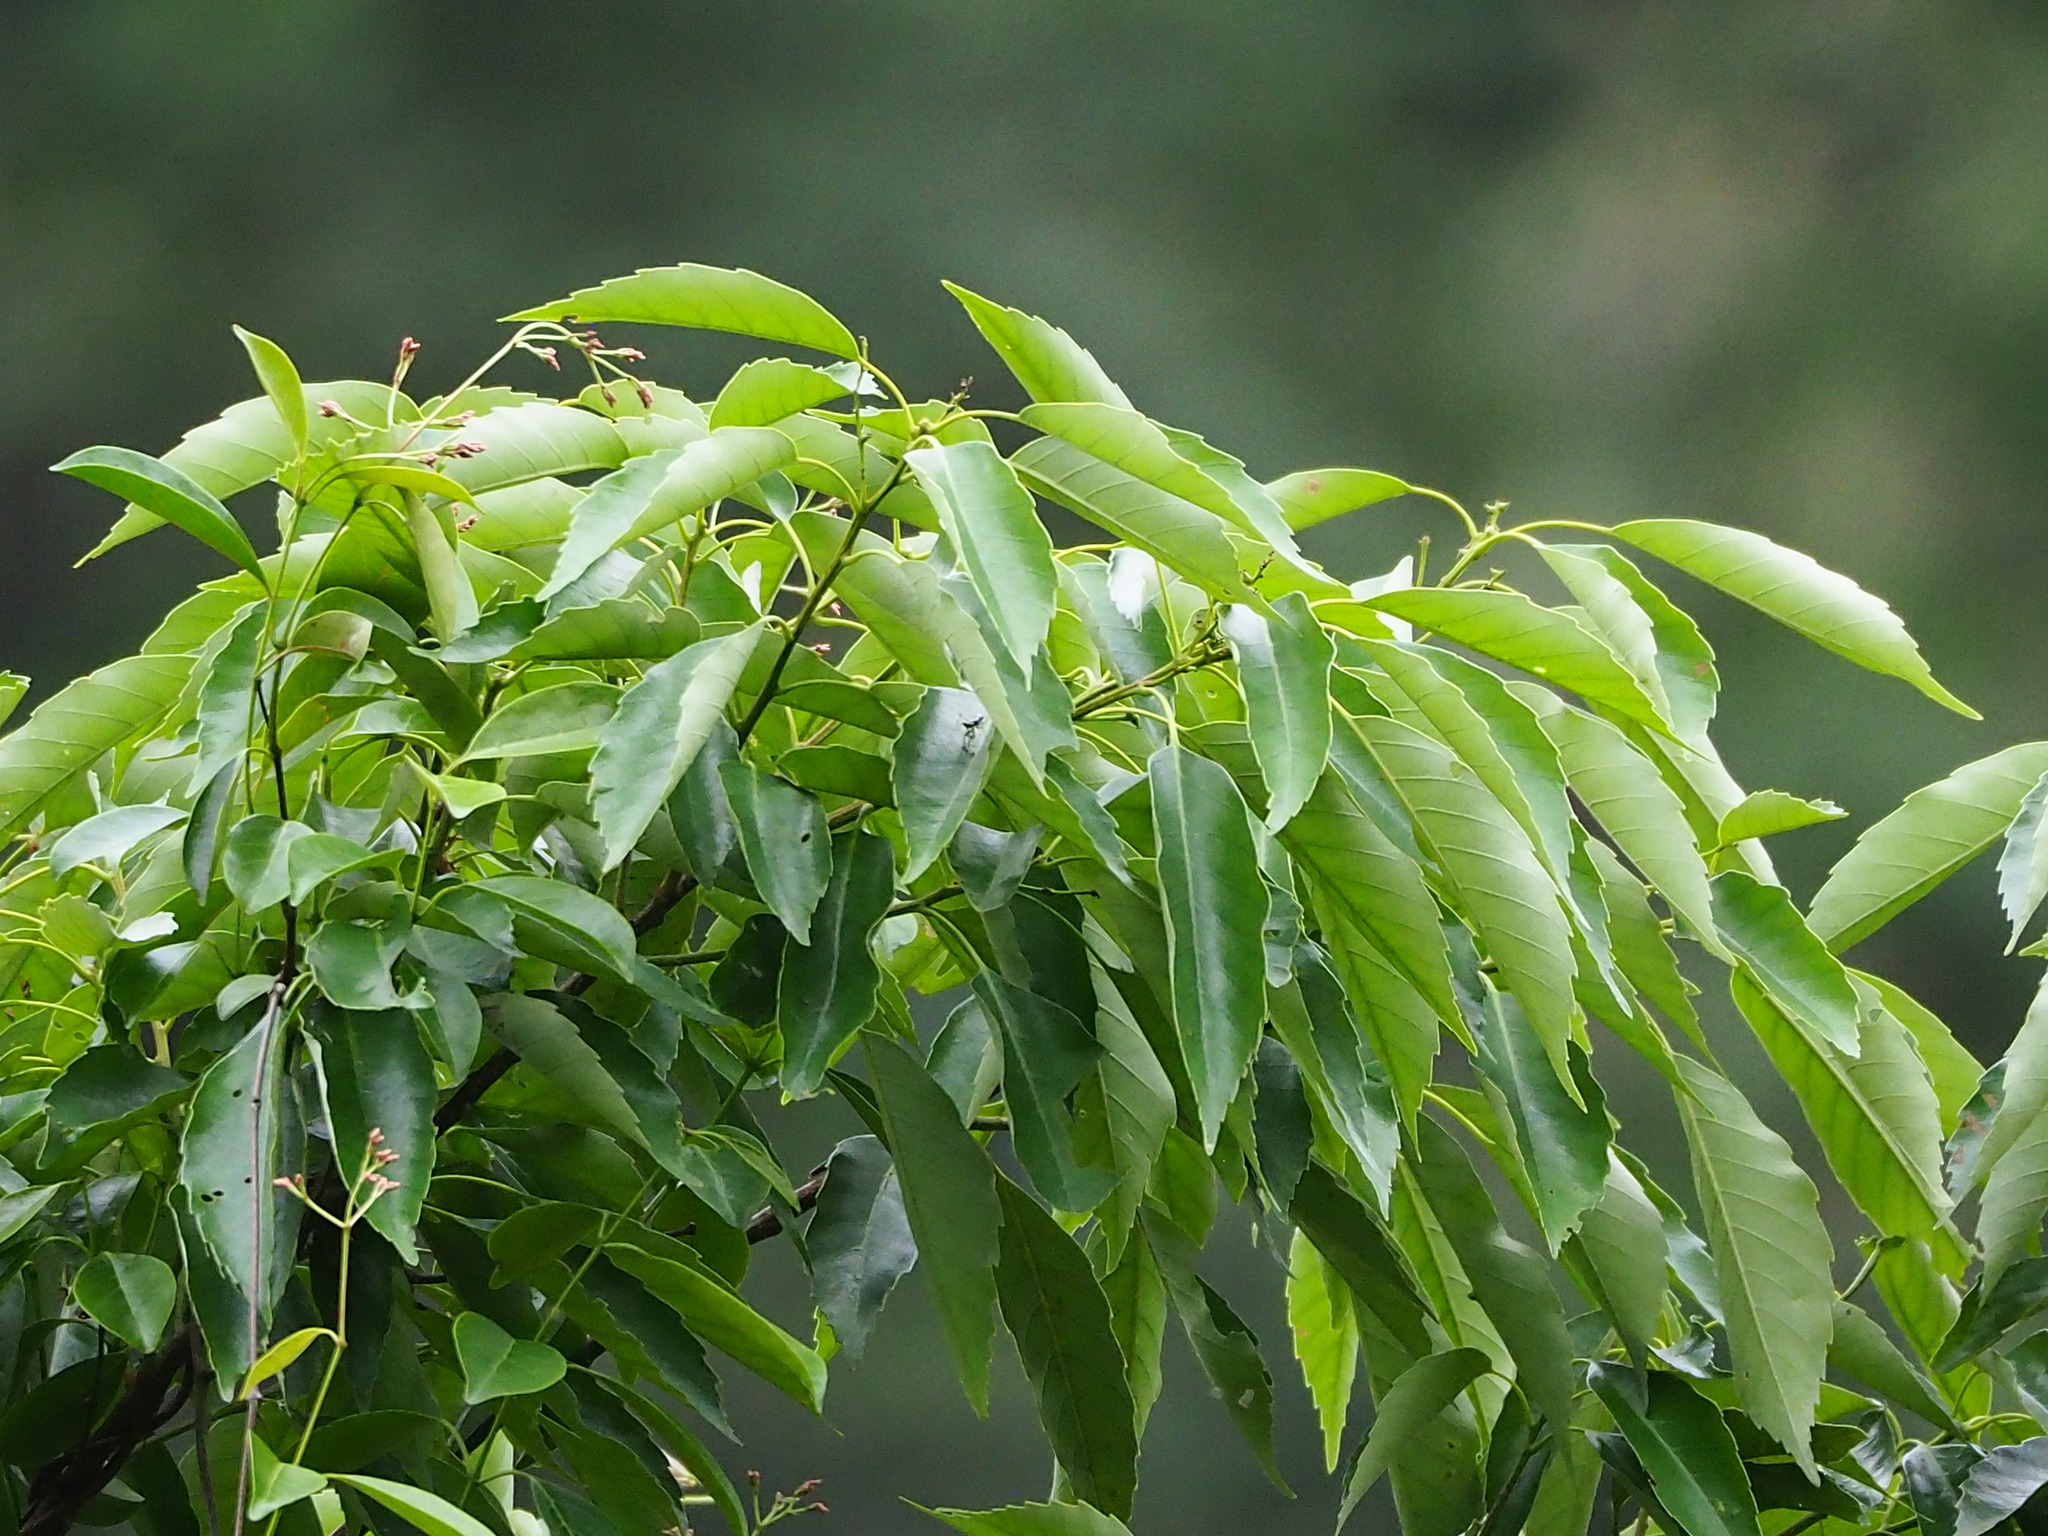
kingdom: Plantae
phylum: Tracheophyta
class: Magnoliopsida
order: Fagales
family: Fagaceae
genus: Quercus
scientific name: Quercus glauca
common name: Ring-cup oak
